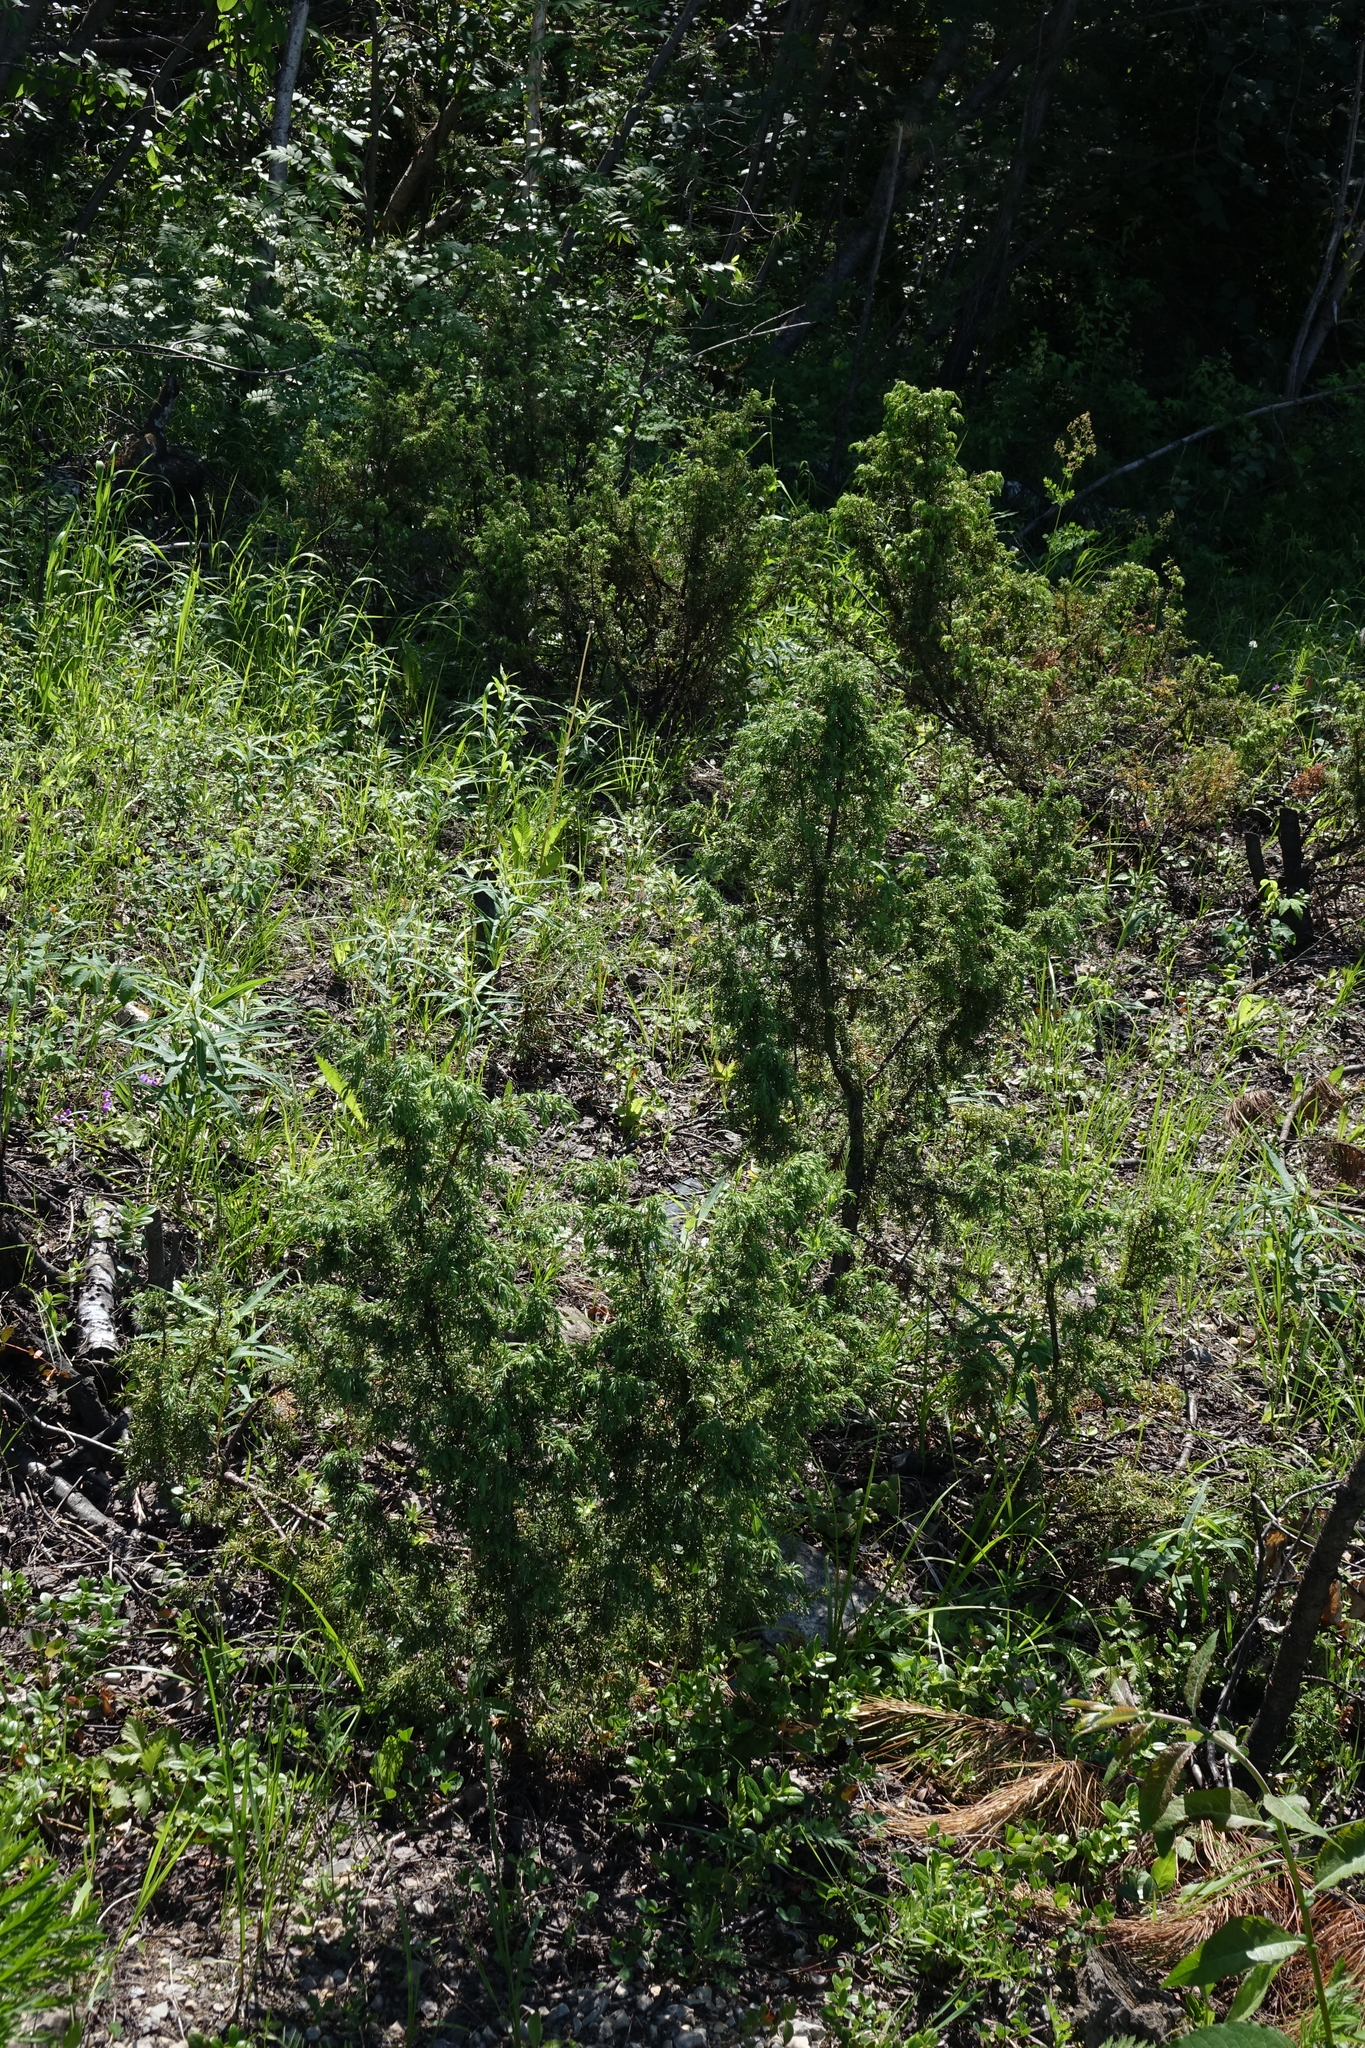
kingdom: Plantae
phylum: Tracheophyta
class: Pinopsida
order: Pinales
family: Cupressaceae
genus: Juniperus
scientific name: Juniperus communis
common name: Common juniper
